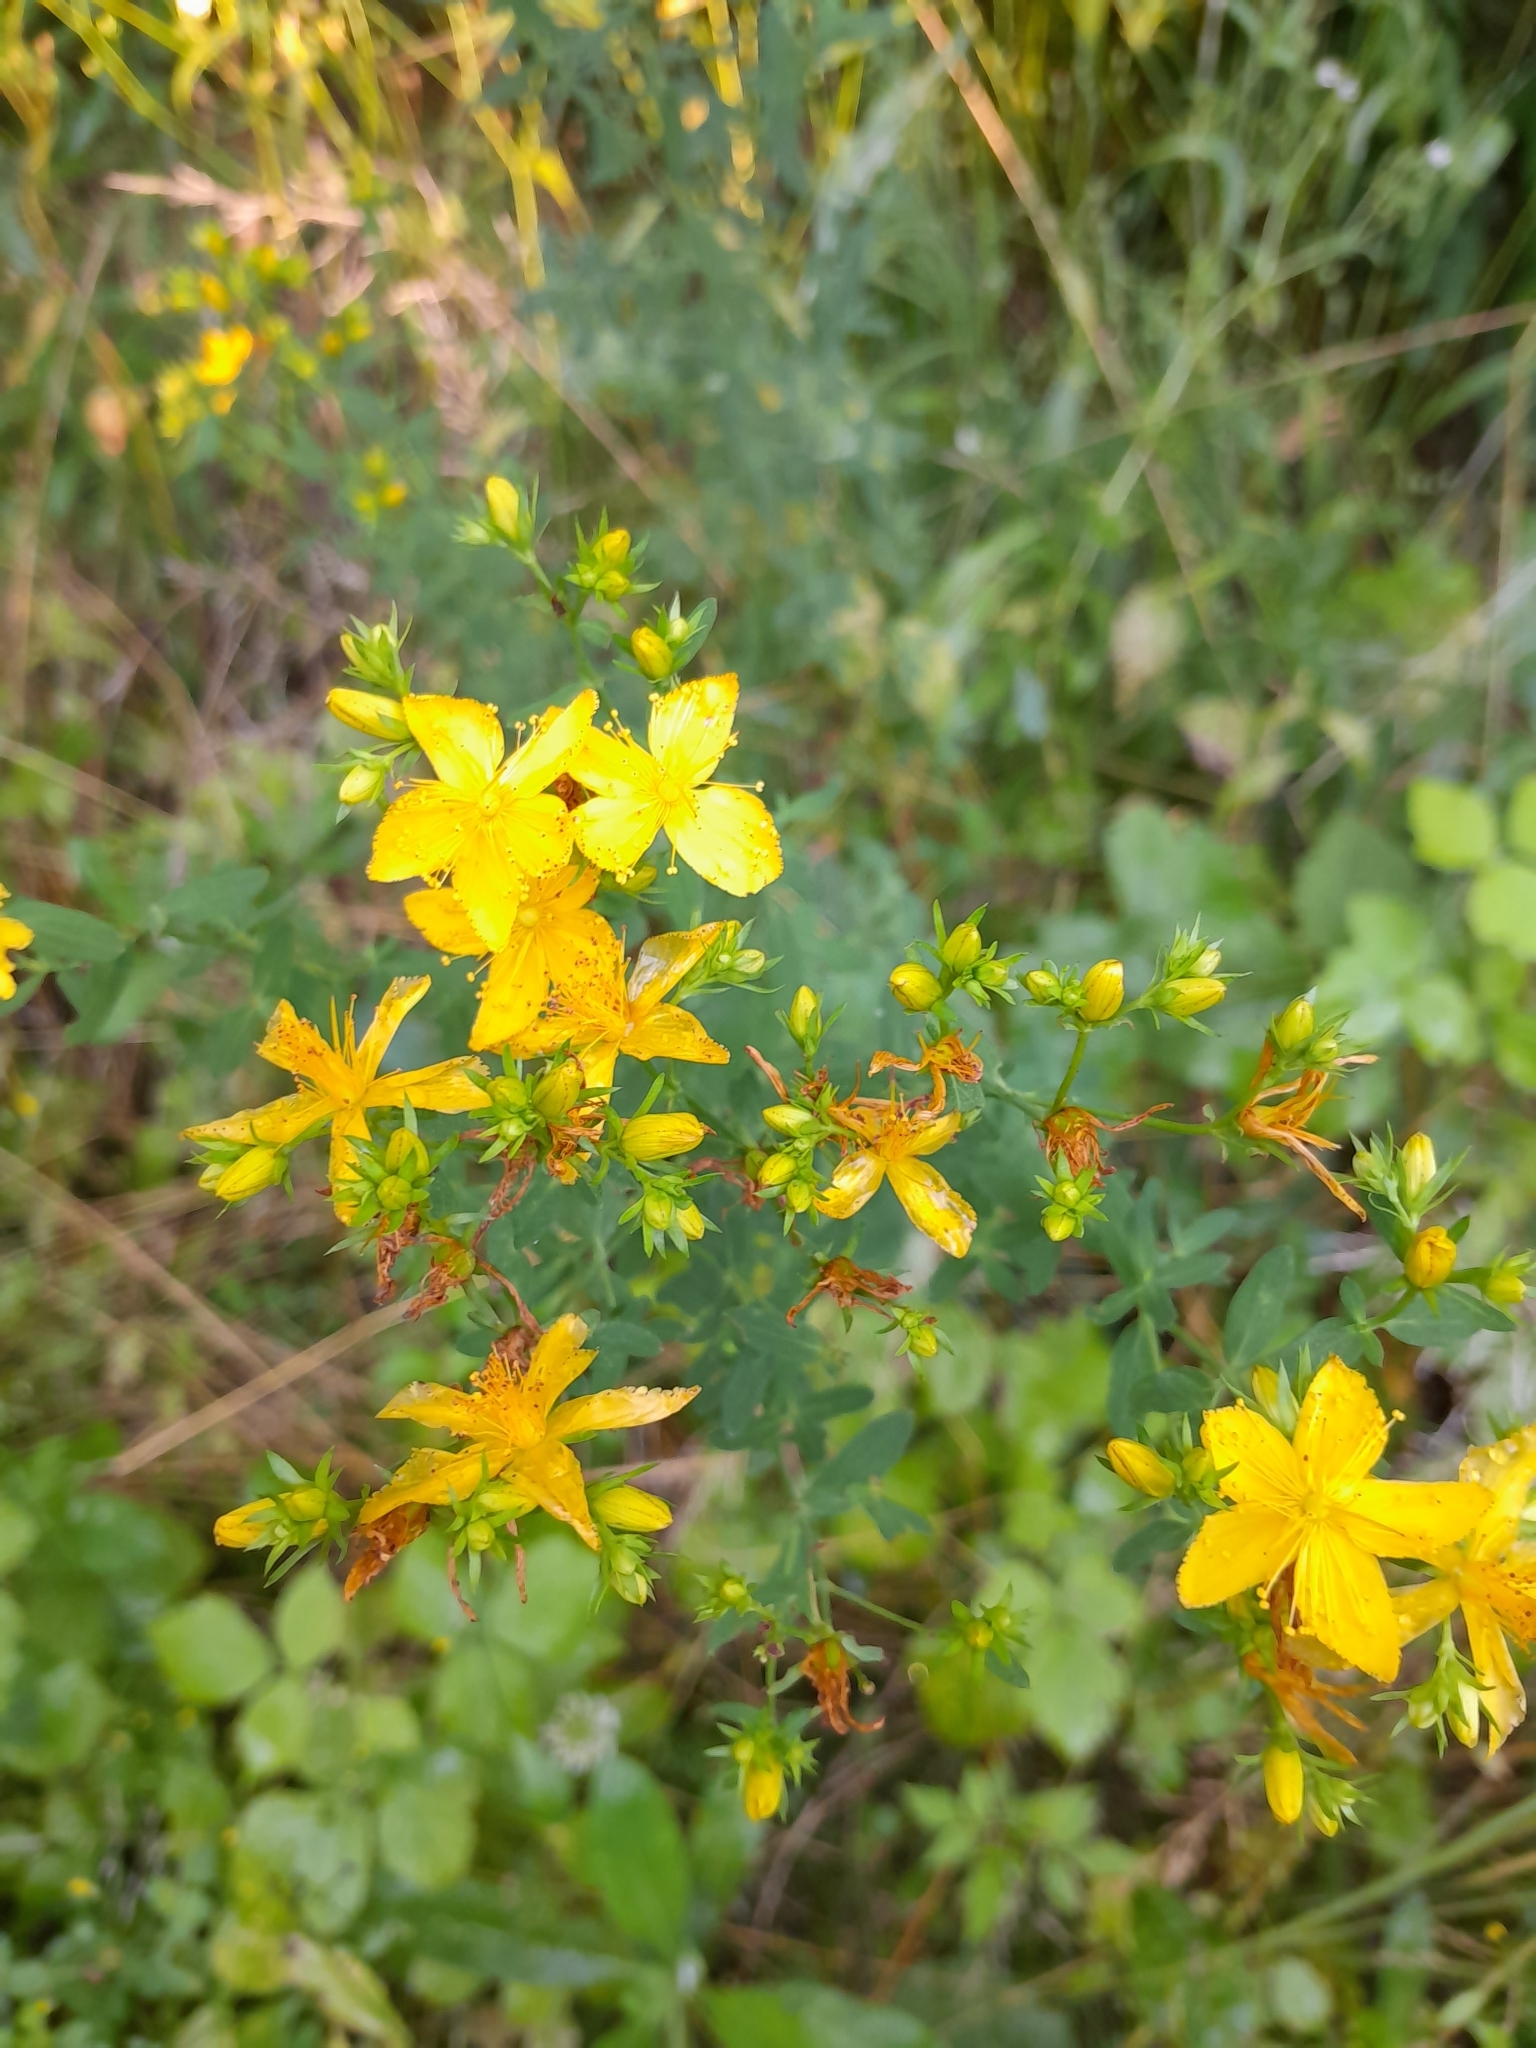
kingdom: Plantae
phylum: Tracheophyta
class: Magnoliopsida
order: Malpighiales
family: Hypericaceae
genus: Hypericum
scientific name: Hypericum perforatum
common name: Common st. johnswort
